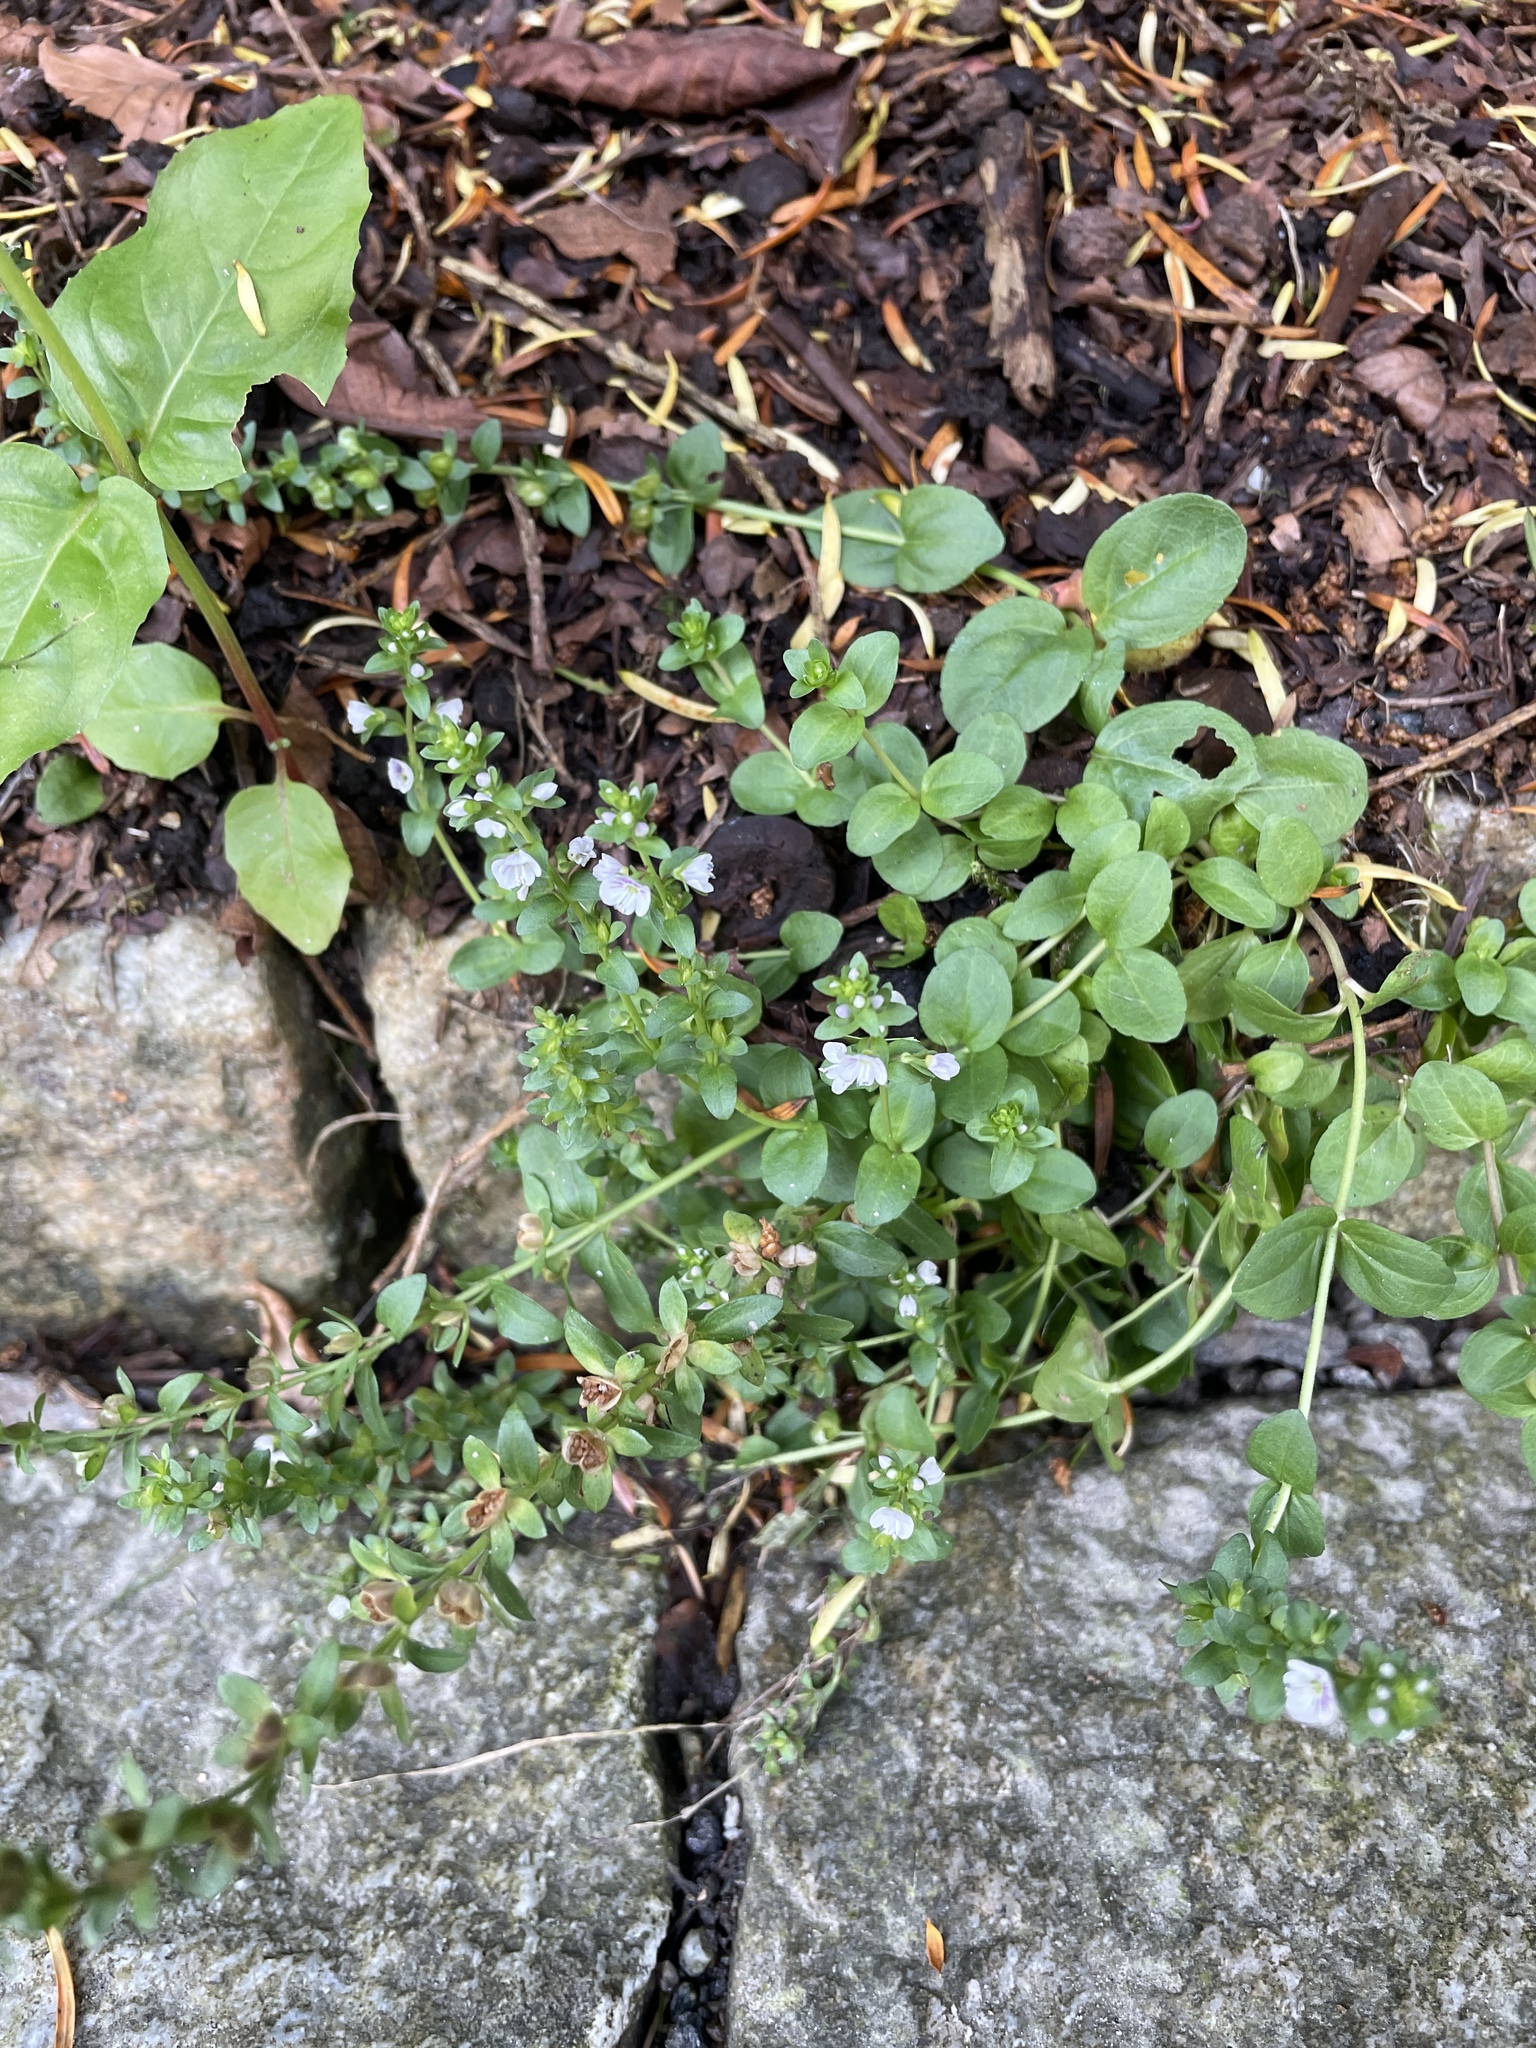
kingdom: Plantae
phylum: Tracheophyta
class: Magnoliopsida
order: Lamiales
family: Plantaginaceae
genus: Veronica
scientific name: Veronica serpyllifolia
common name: Thyme-leaved speedwell
